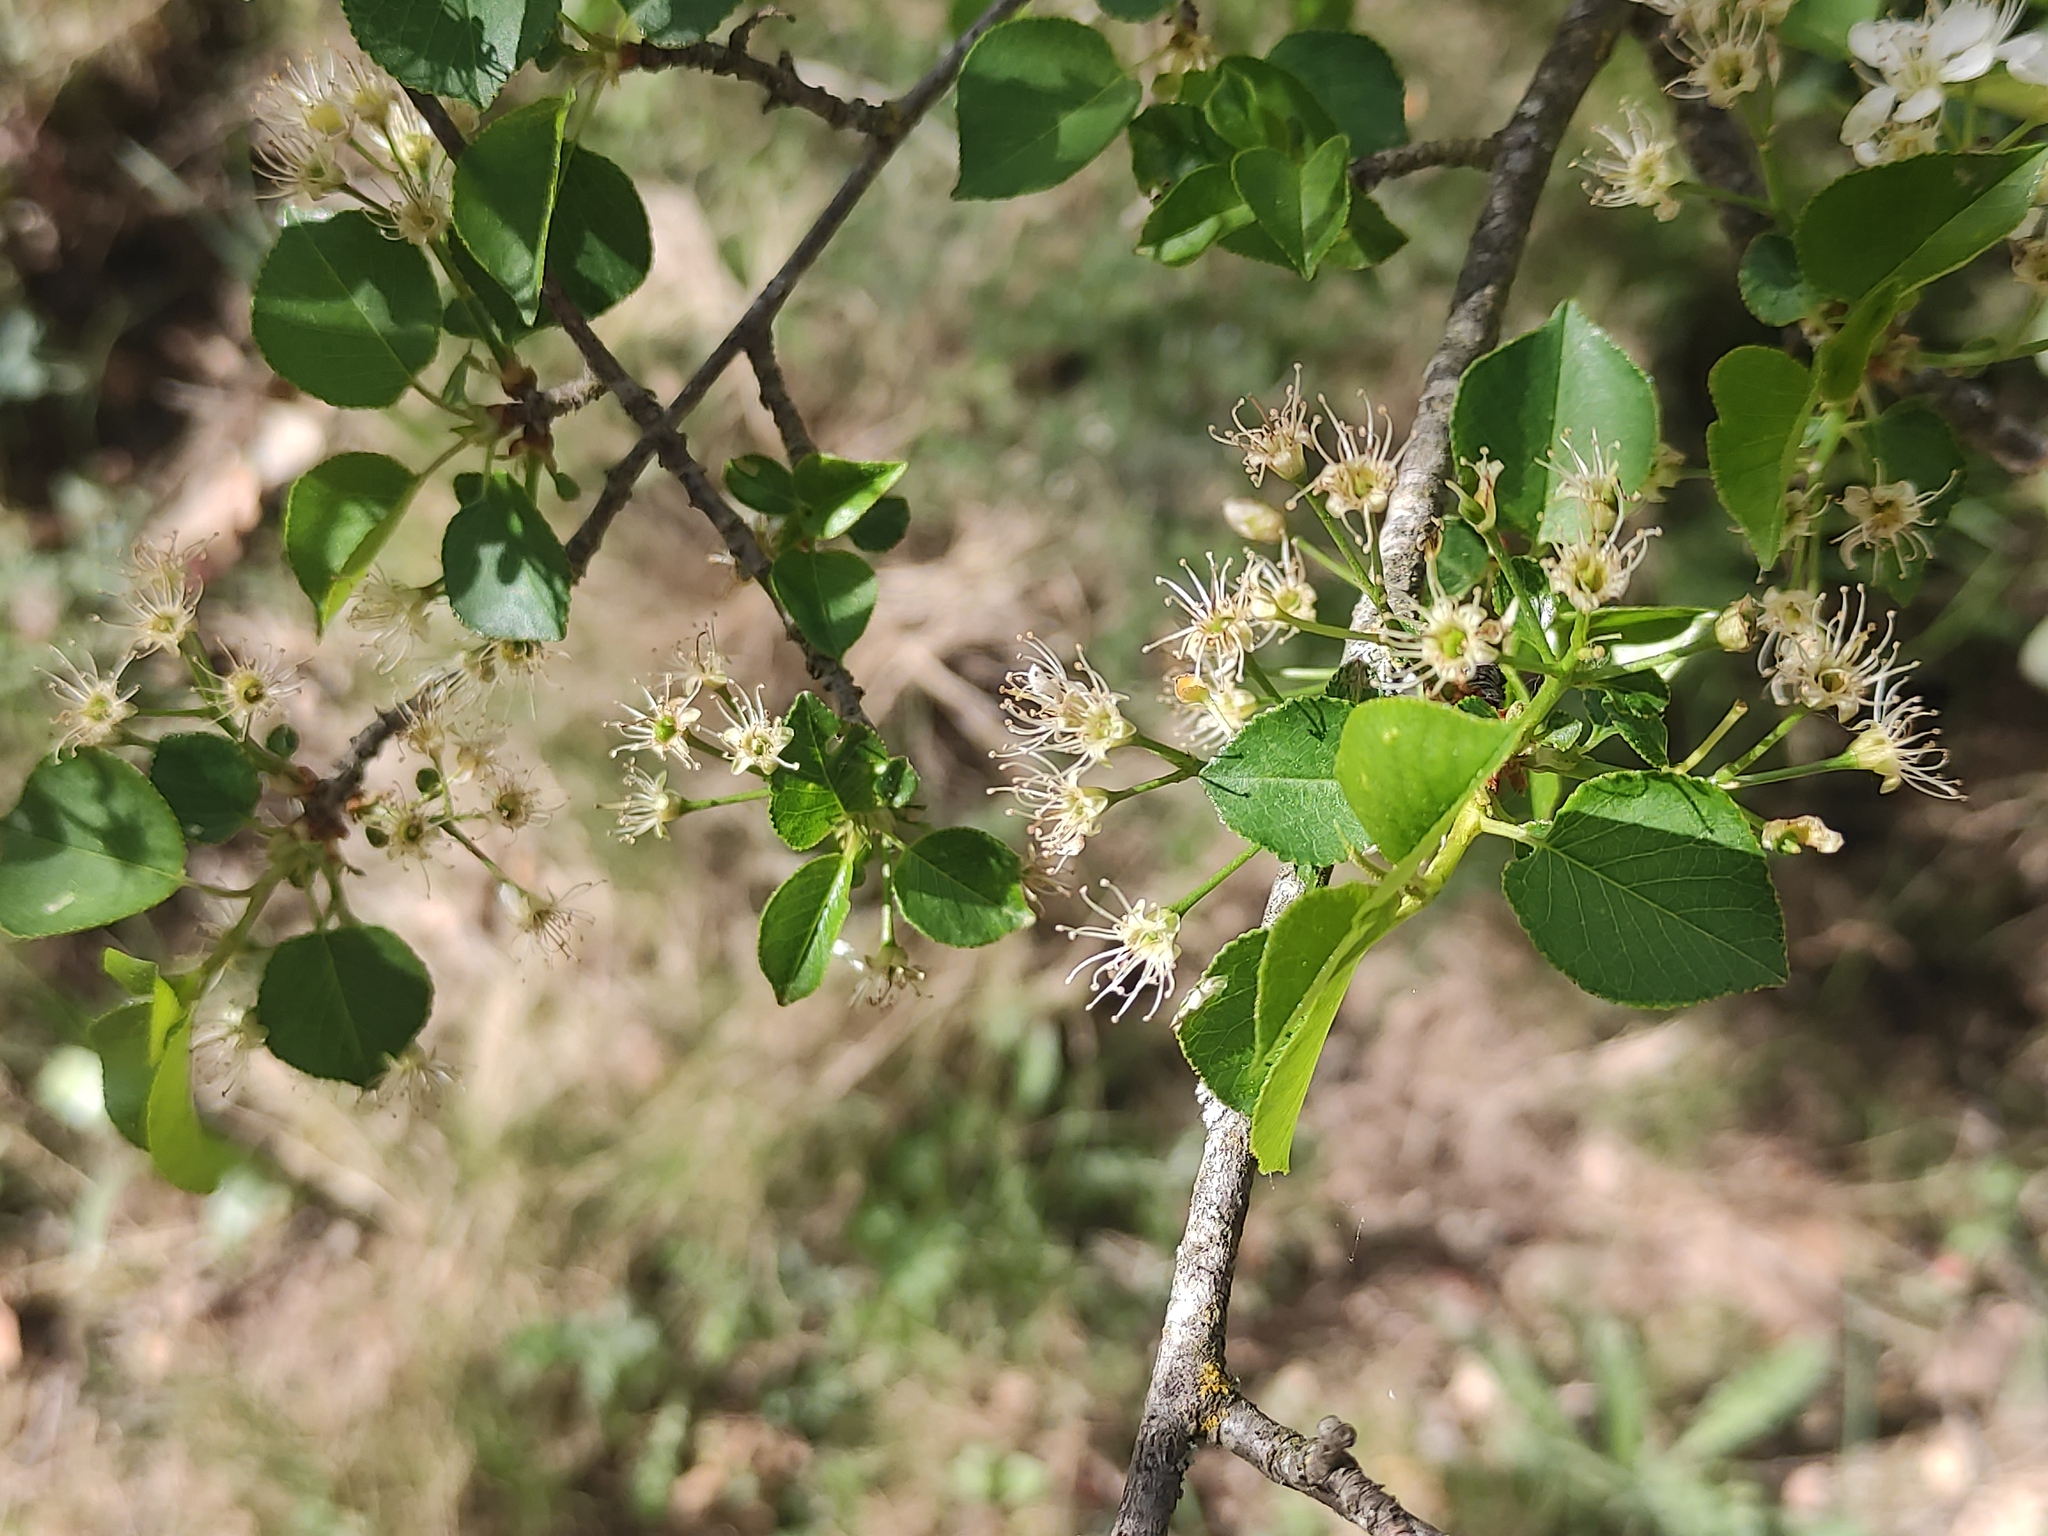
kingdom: Plantae
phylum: Tracheophyta
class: Magnoliopsida
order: Rosales
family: Rosaceae
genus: Prunus
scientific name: Prunus mahaleb
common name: Mahaleb cherry
